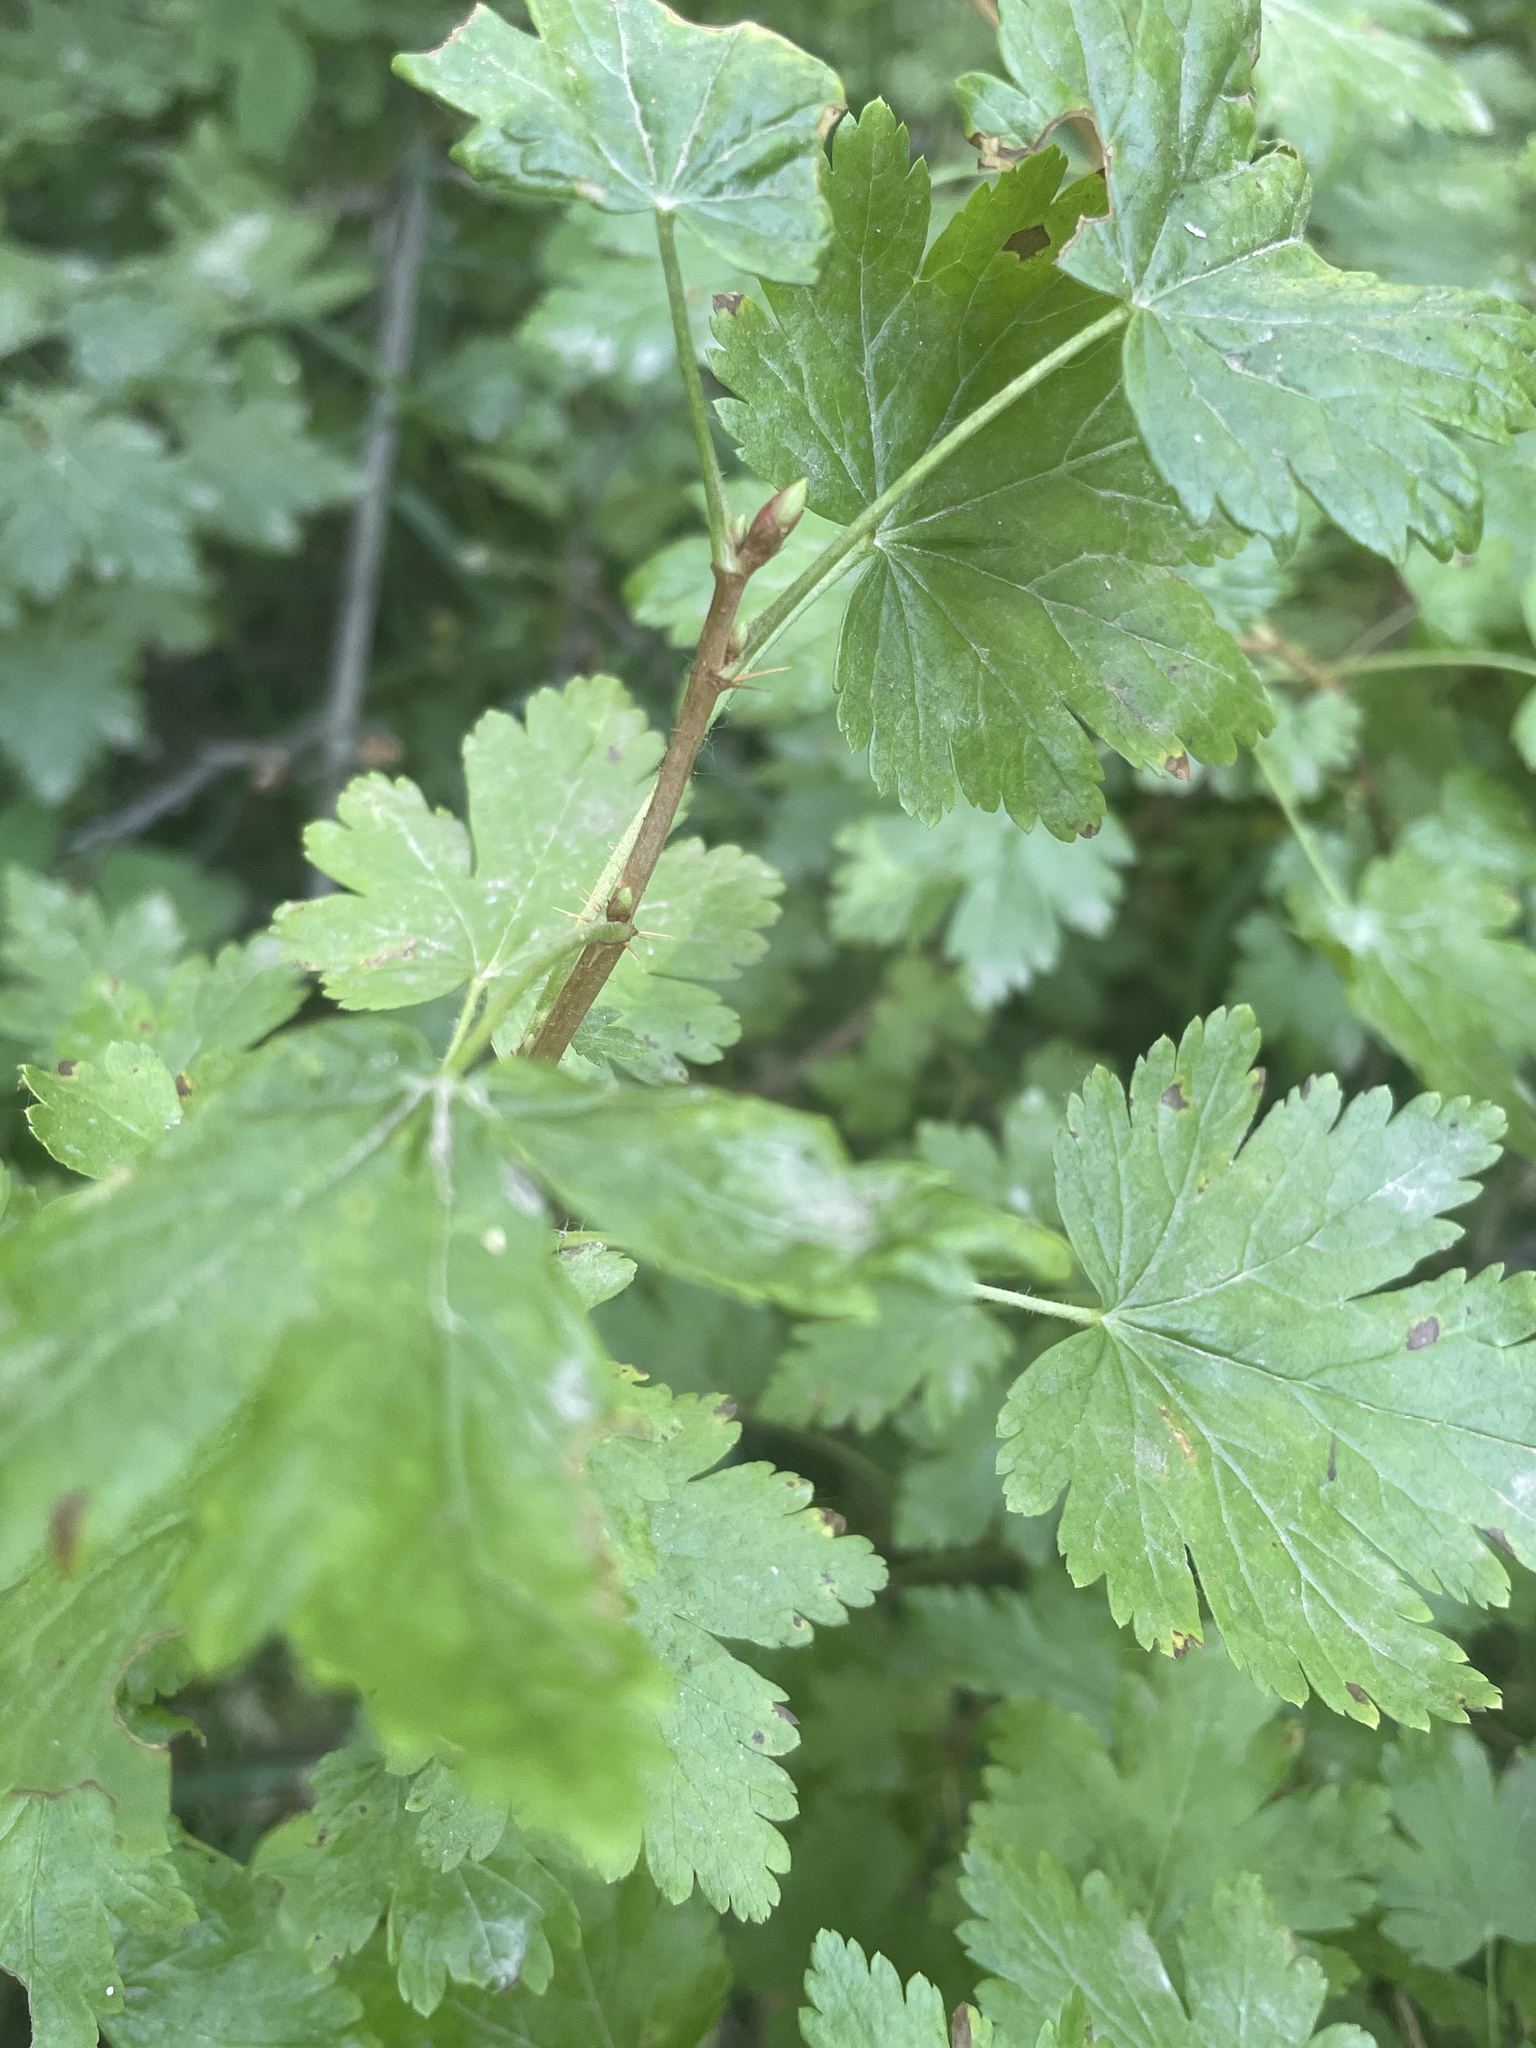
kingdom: Plantae
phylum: Tracheophyta
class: Magnoliopsida
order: Saxifragales
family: Grossulariaceae
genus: Ribes
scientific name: Ribes lacustre
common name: Black gooseberry
